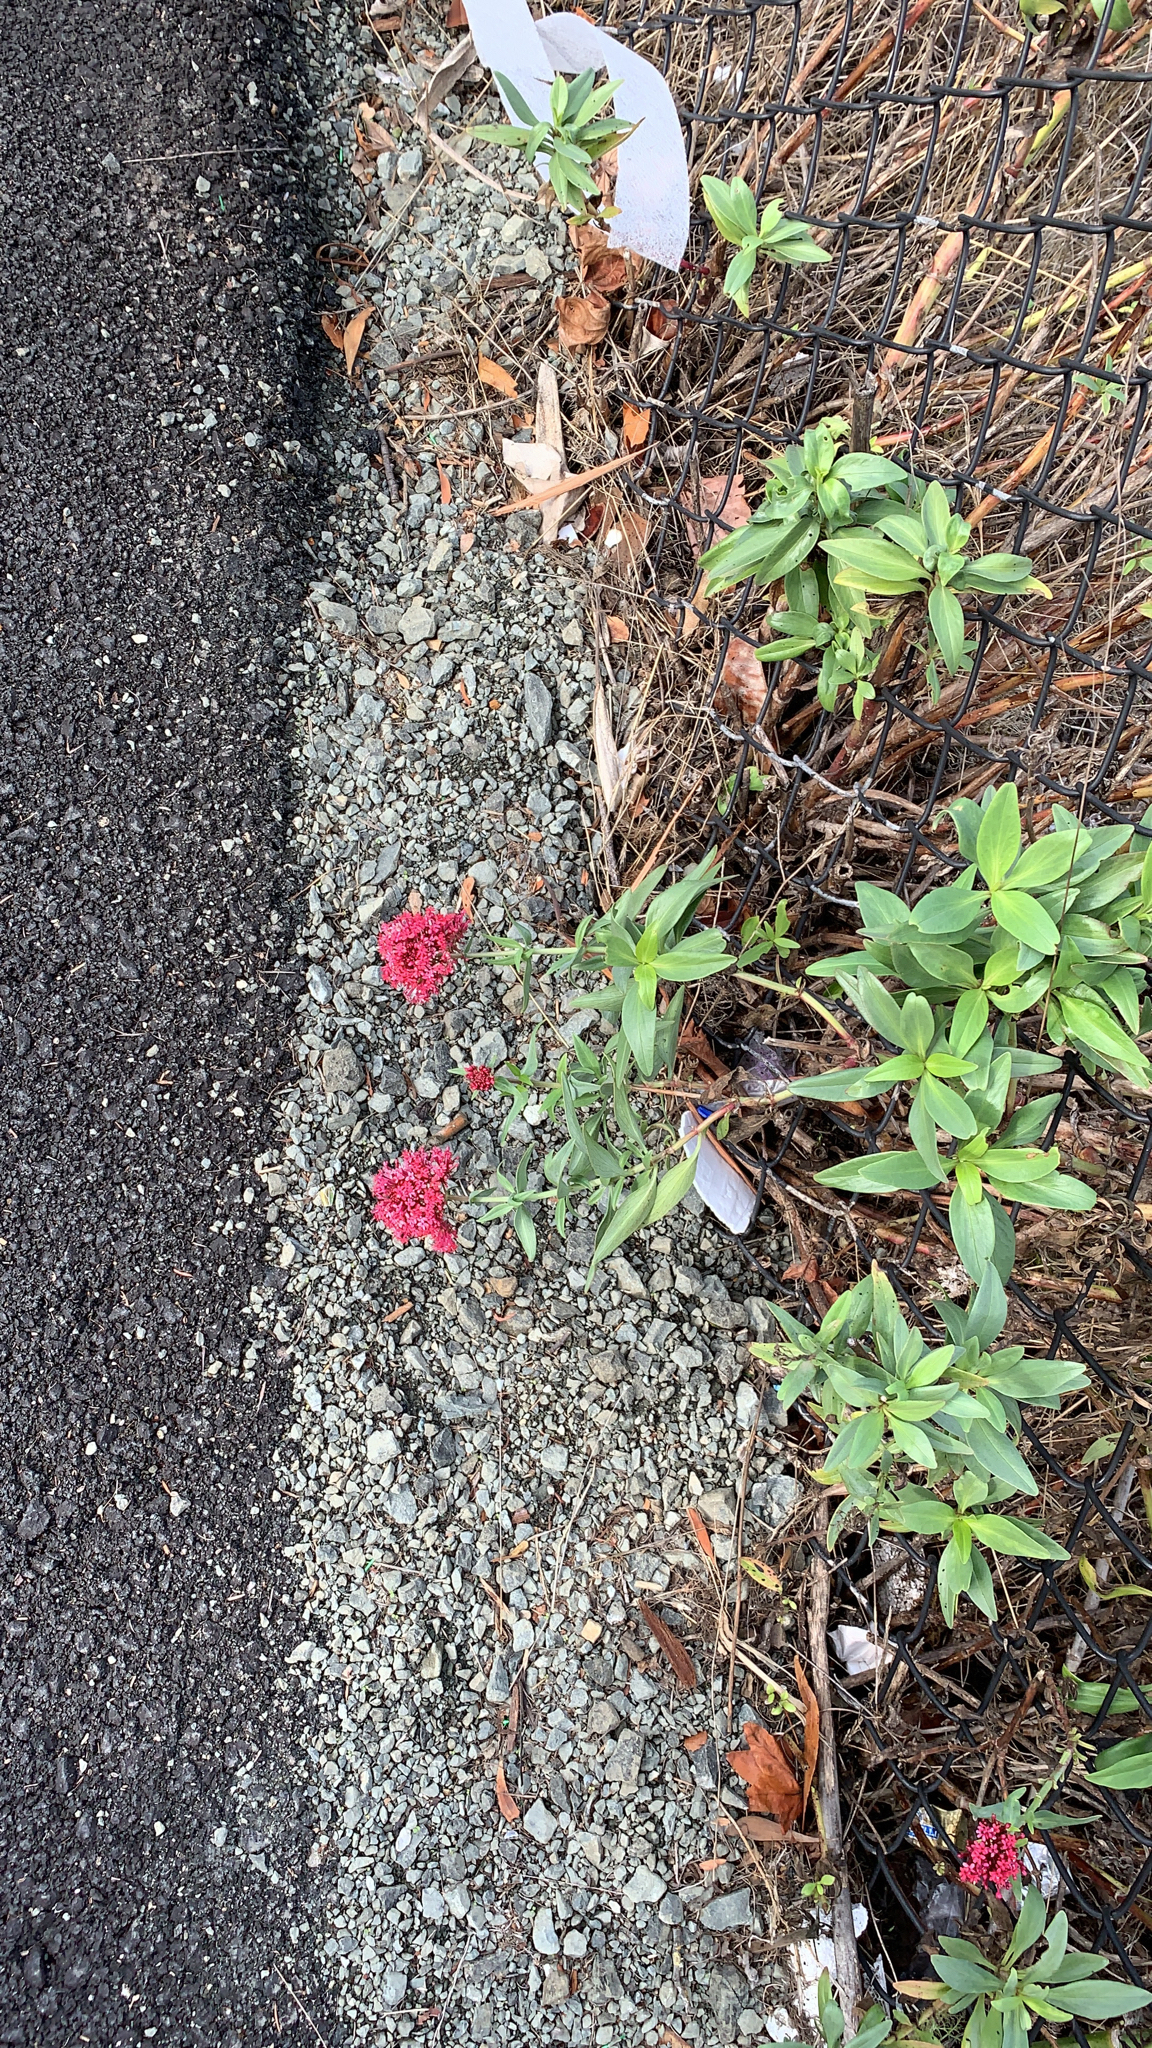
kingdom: Plantae
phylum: Tracheophyta
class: Magnoliopsida
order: Dipsacales
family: Caprifoliaceae
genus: Centranthus
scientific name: Centranthus ruber
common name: Red valerian
